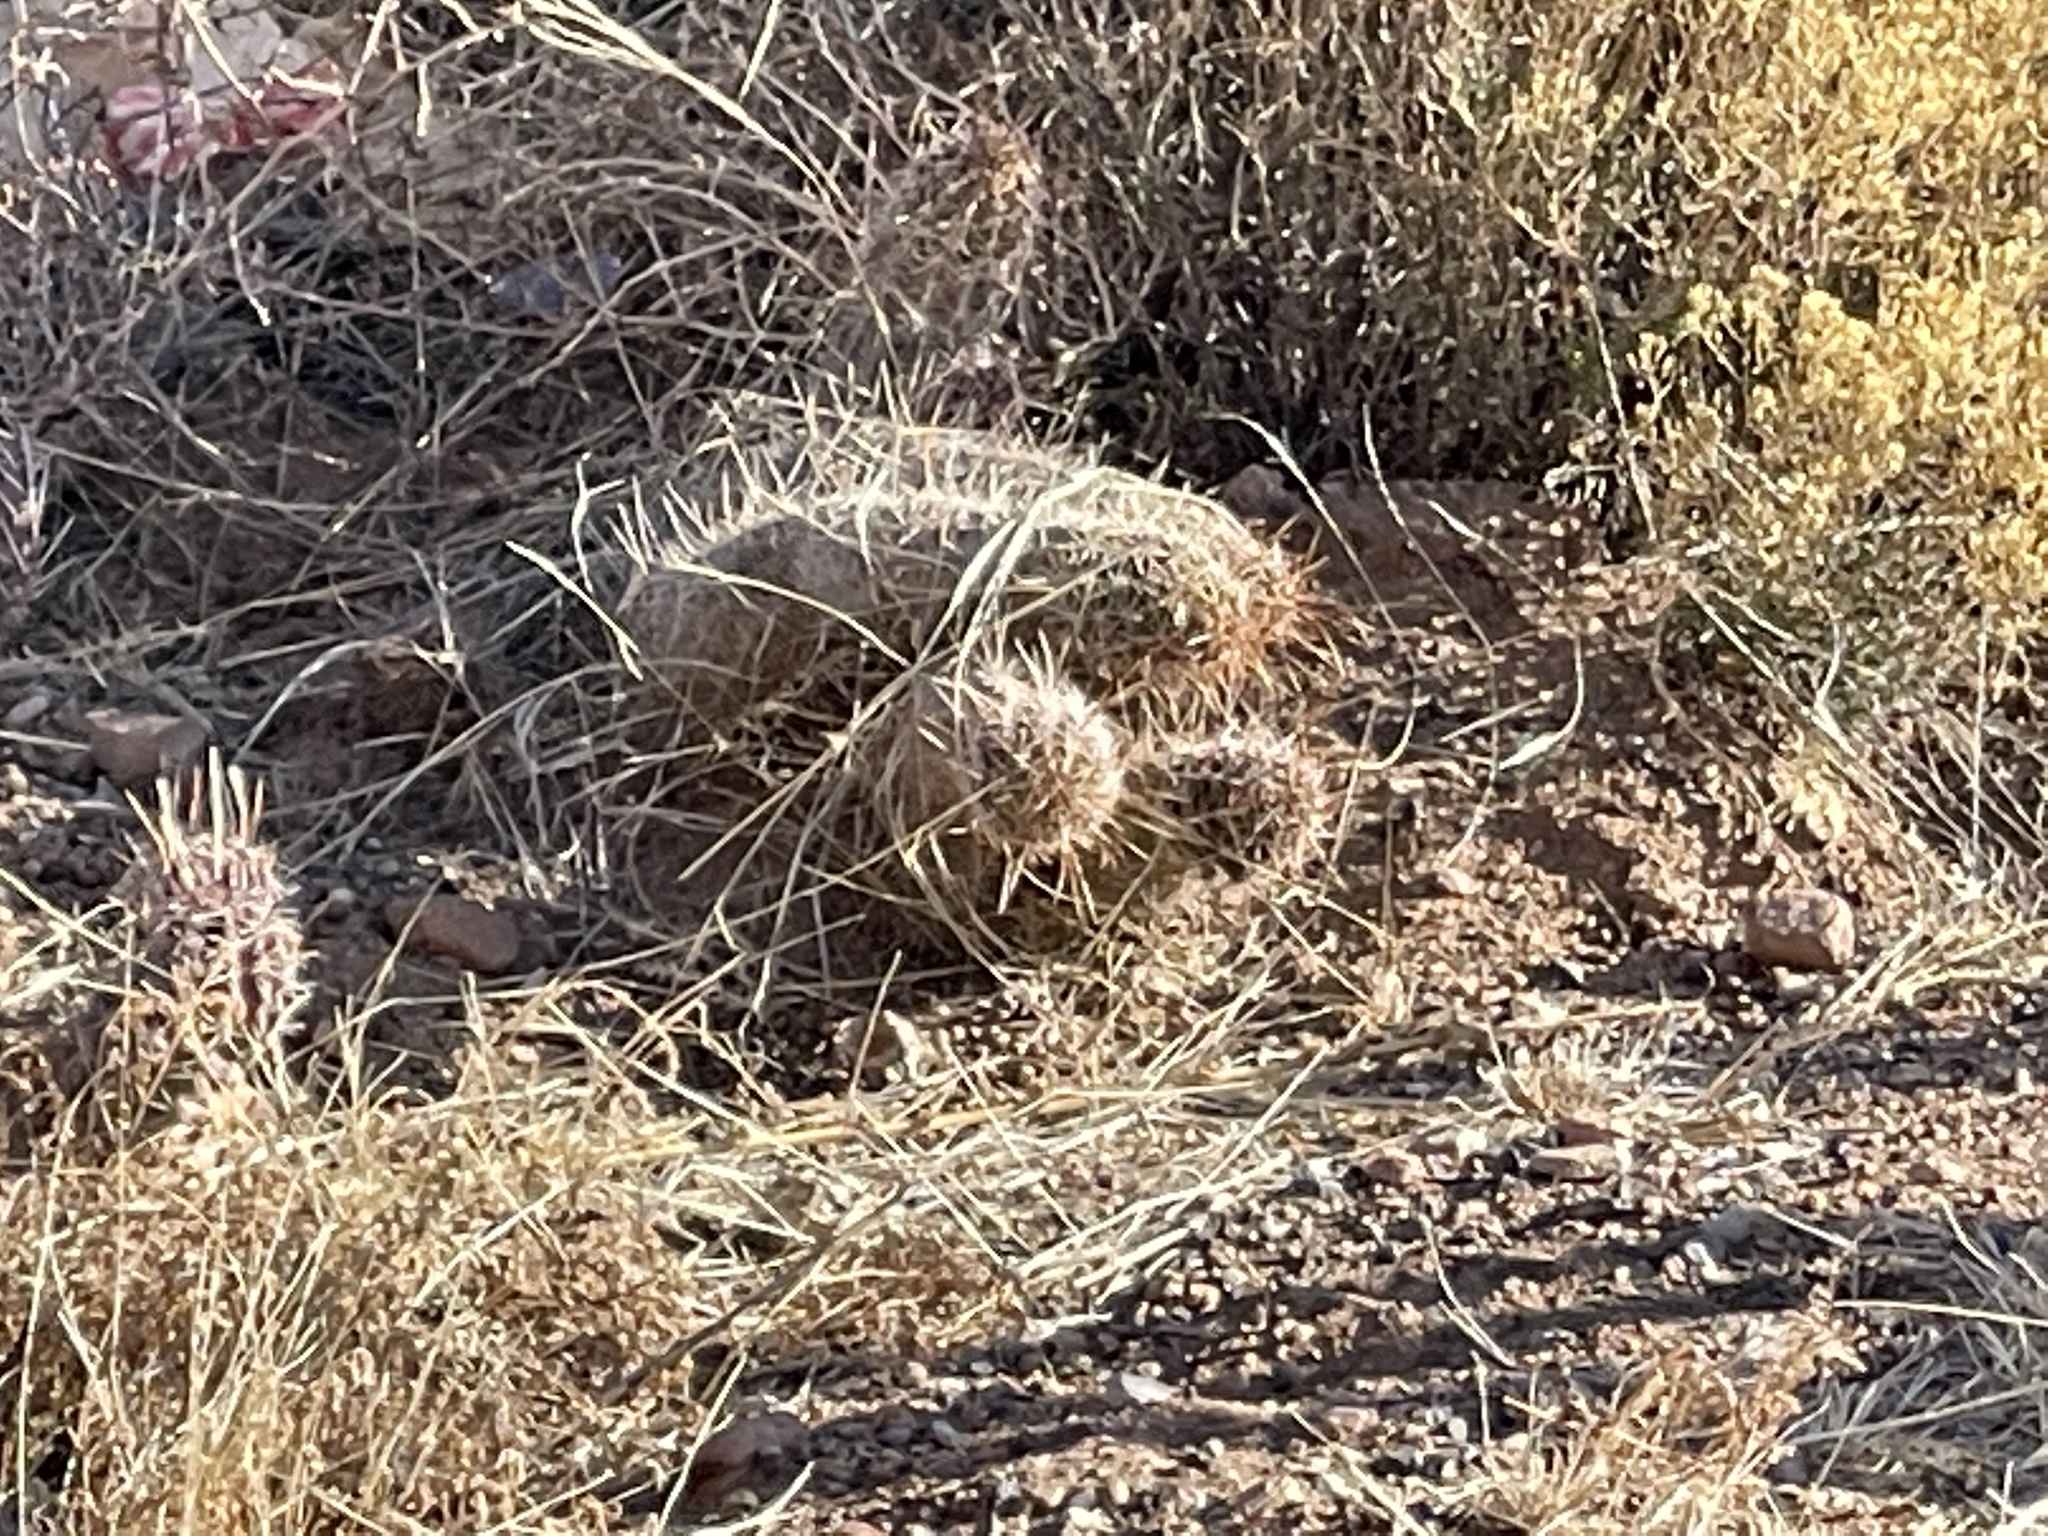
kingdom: Plantae
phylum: Tracheophyta
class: Magnoliopsida
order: Caryophyllales
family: Cactaceae
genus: Echinocereus
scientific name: Echinocereus fendleri
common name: Fendler's hedgehog cactus
